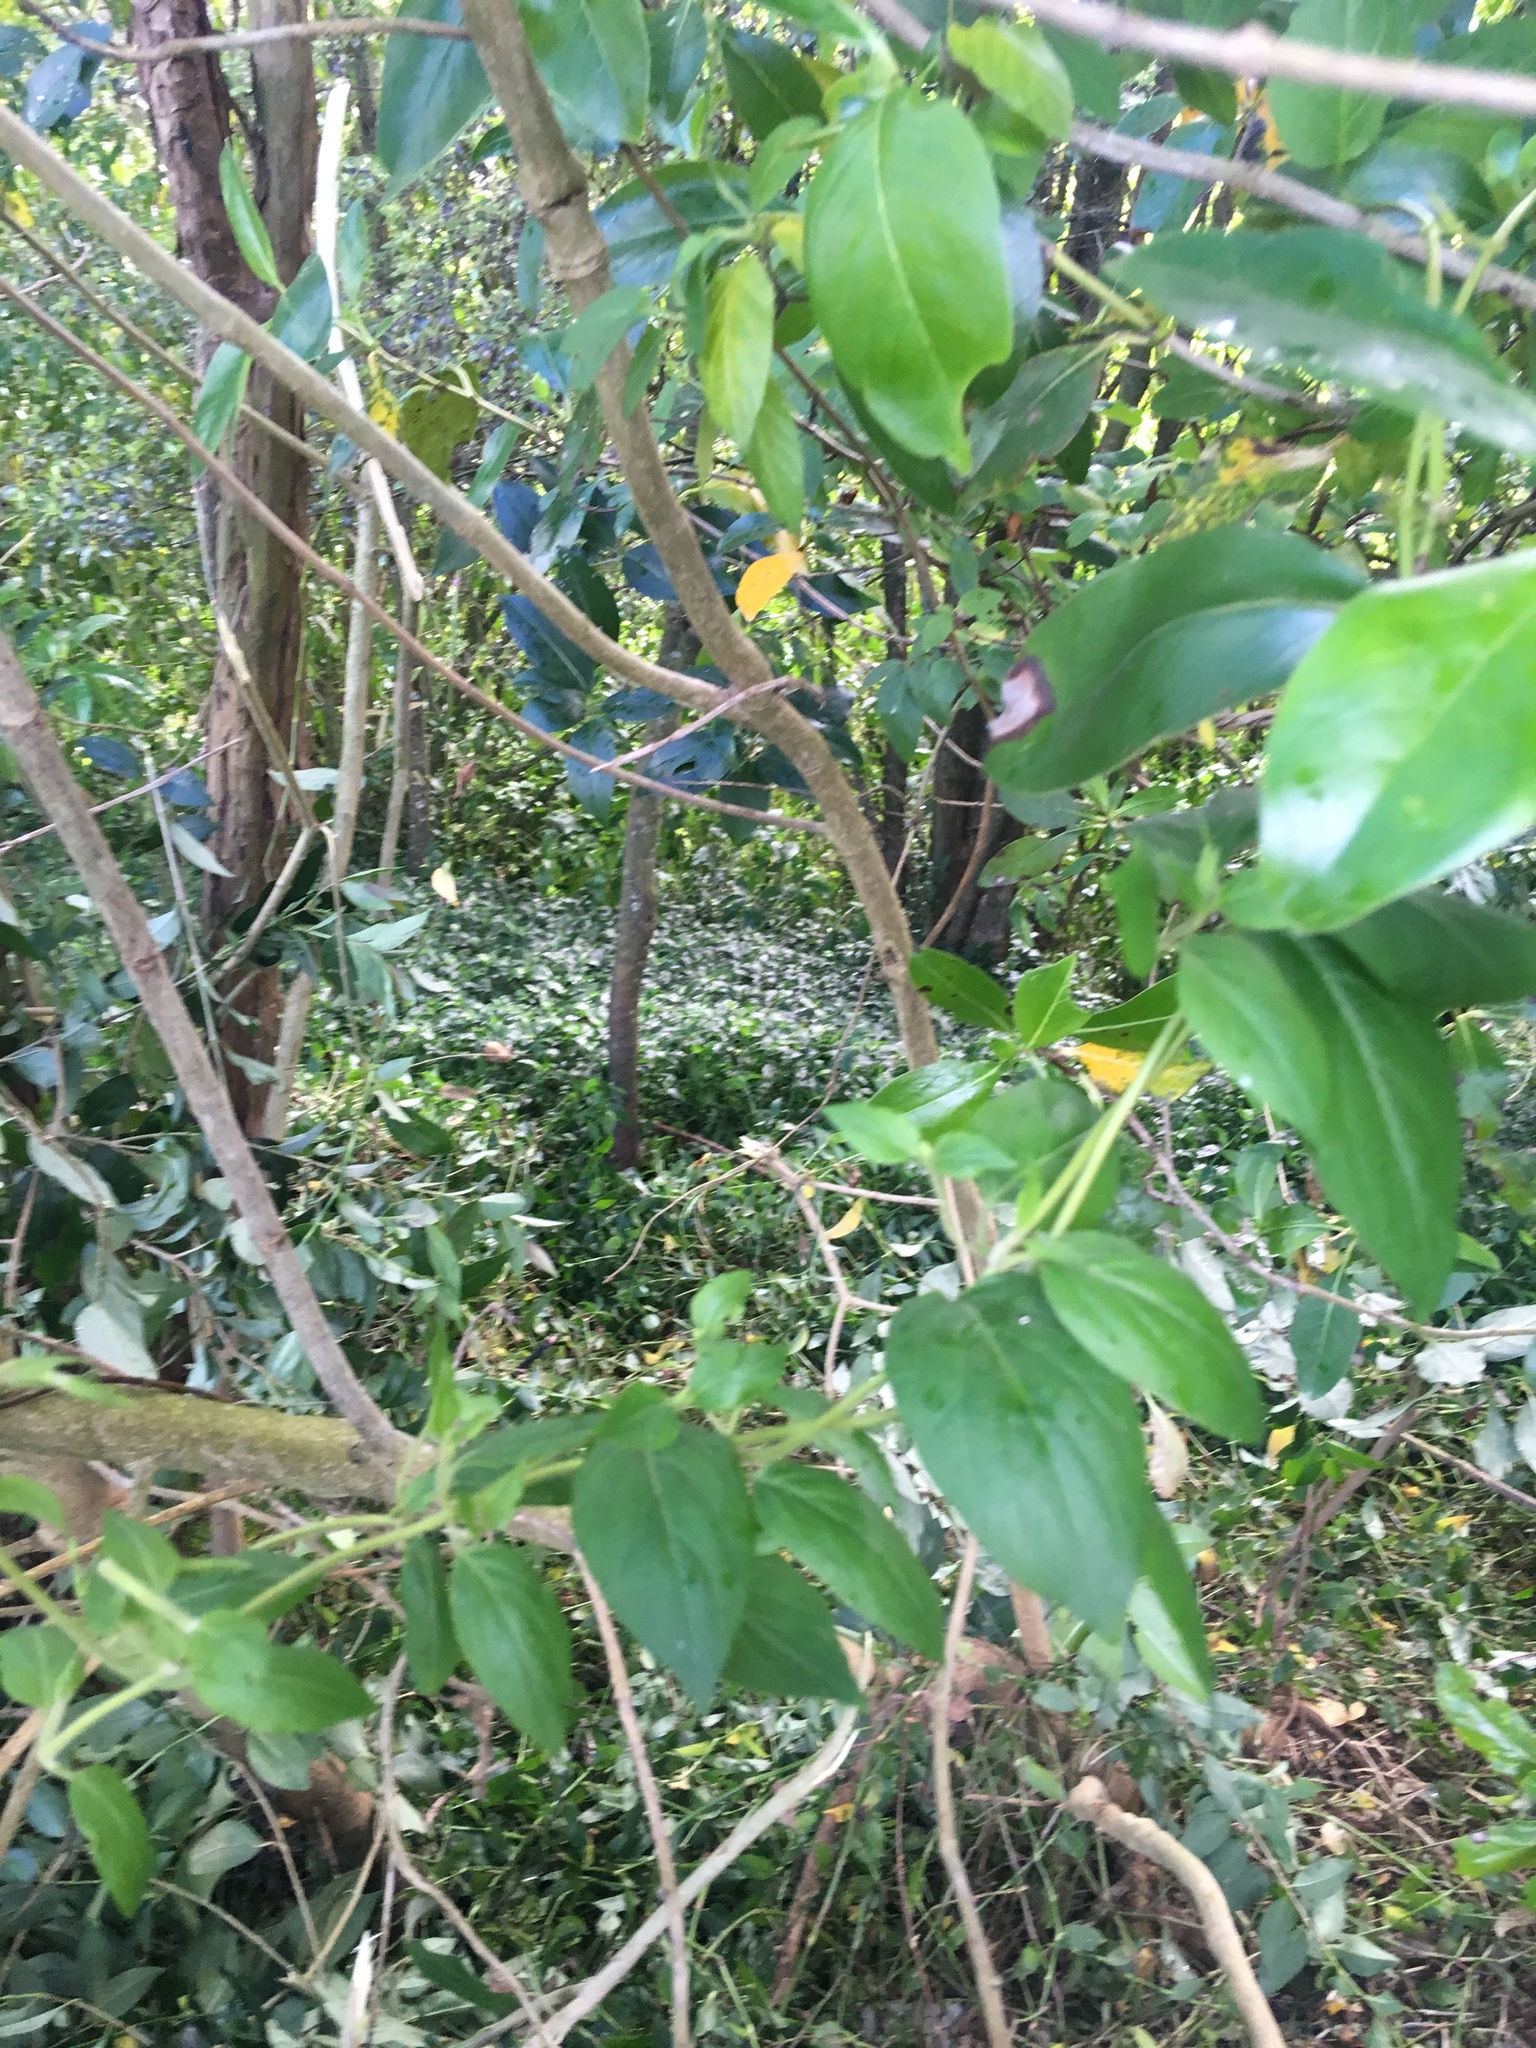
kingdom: Plantae
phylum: Tracheophyta
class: Liliopsida
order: Commelinales
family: Commelinaceae
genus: Tradescantia
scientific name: Tradescantia fluminensis
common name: Wandering-jew
